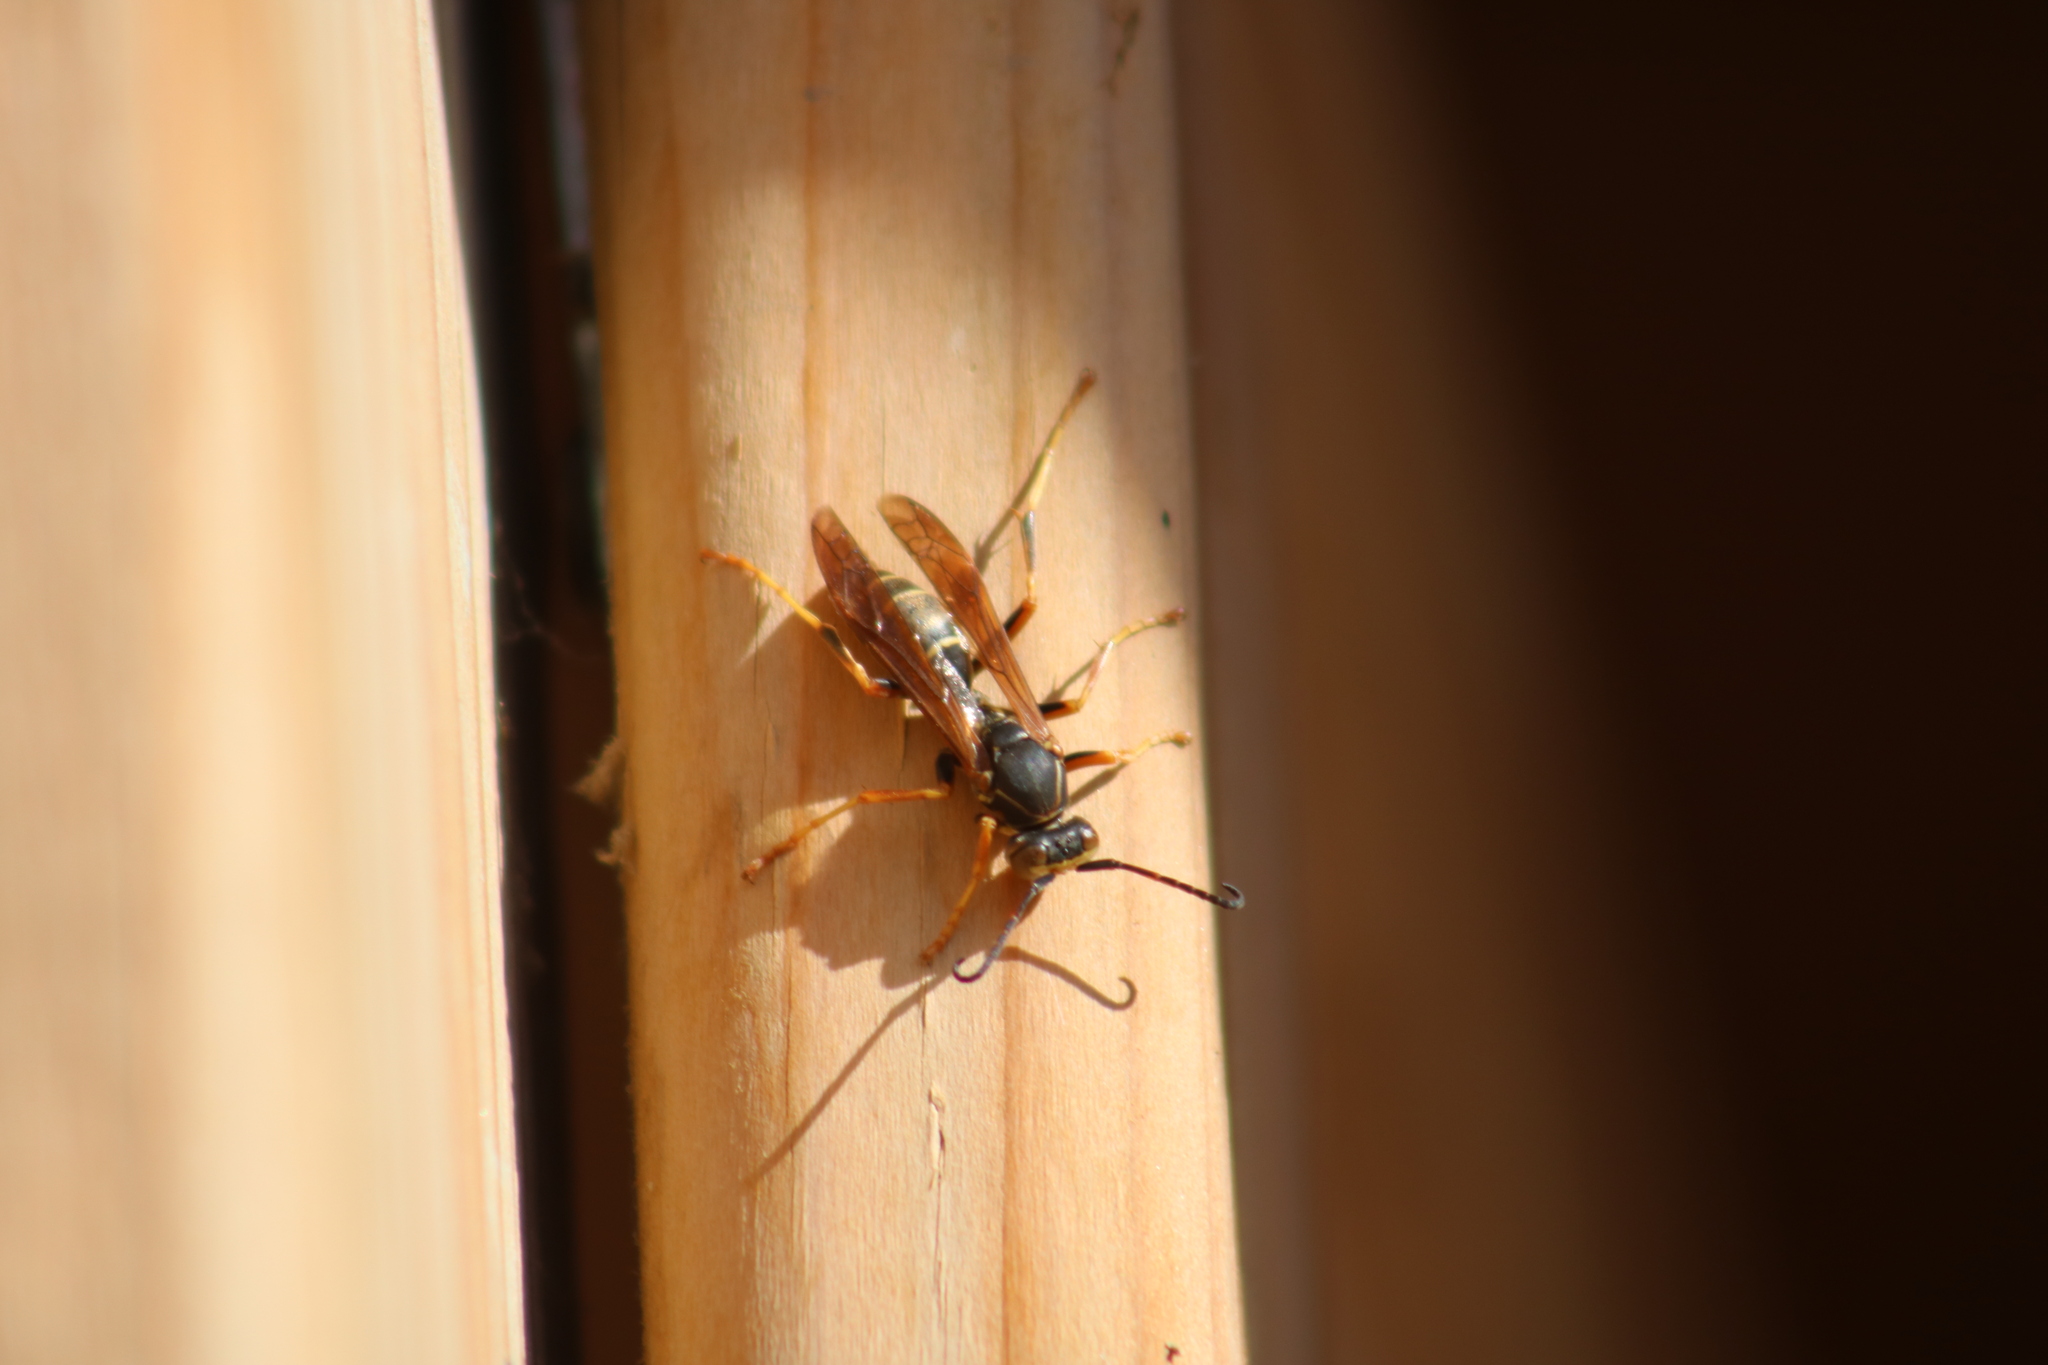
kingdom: Animalia
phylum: Arthropoda
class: Insecta
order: Hymenoptera
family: Eumenidae
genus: Polistes
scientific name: Polistes fuscatus
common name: Dark paper wasp
